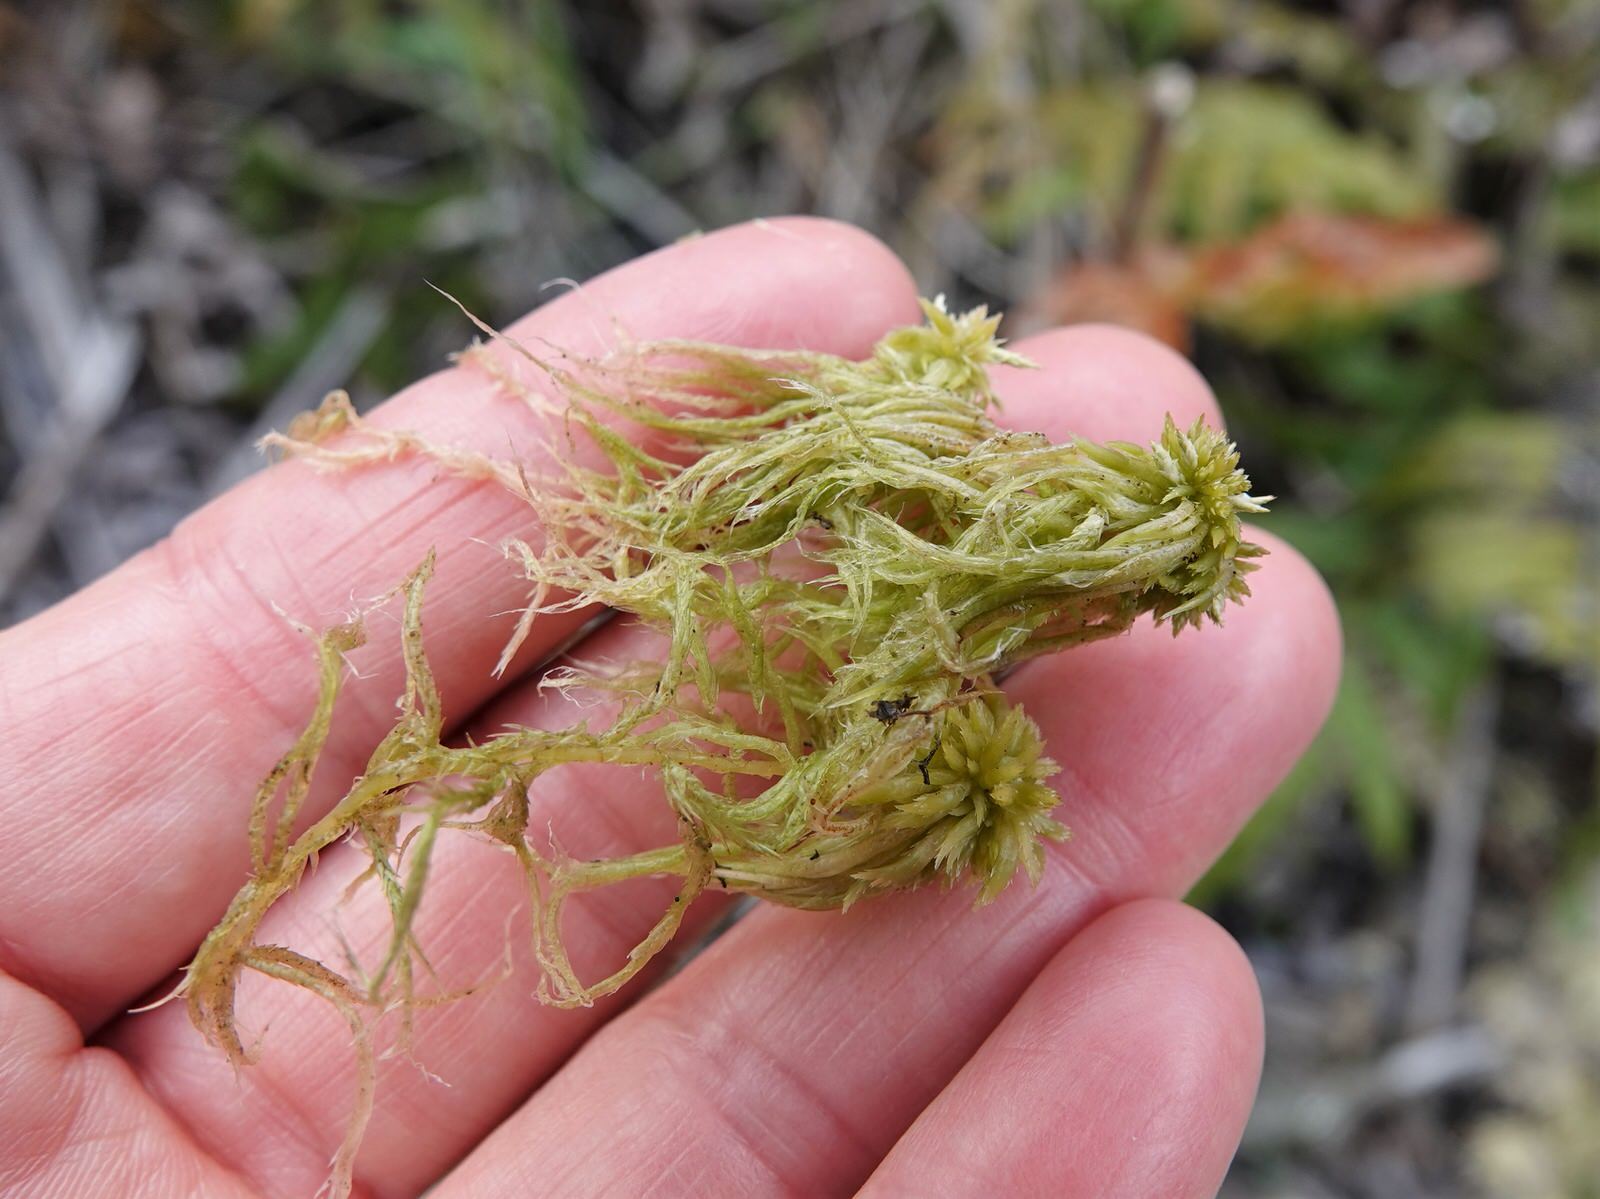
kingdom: Plantae
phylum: Bryophyta
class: Sphagnopsida
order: Sphagnales
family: Sphagnaceae
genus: Sphagnum
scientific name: Sphagnum falcatulum
